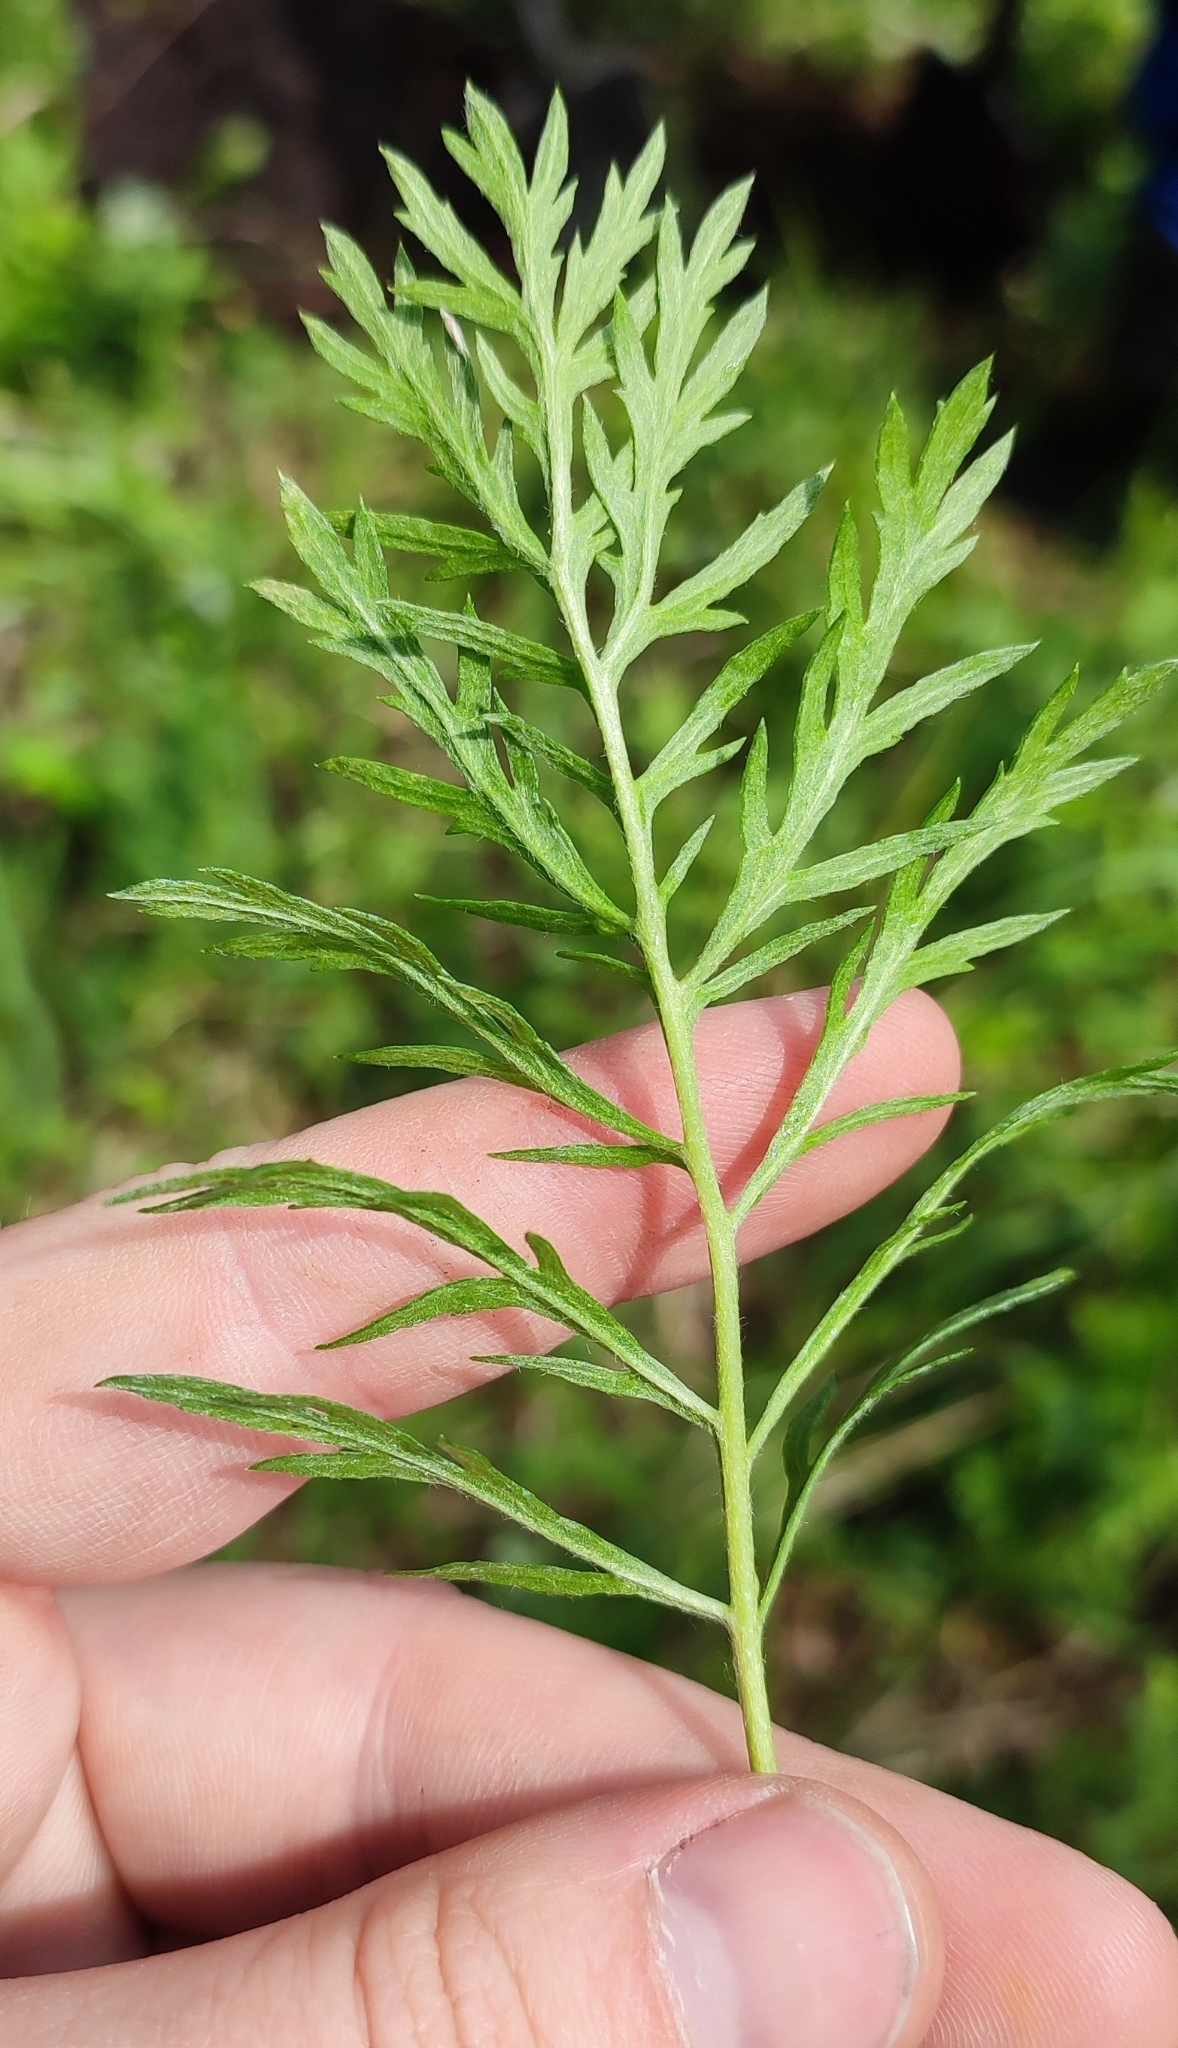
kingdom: Plantae
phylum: Tracheophyta
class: Magnoliopsida
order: Asterales
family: Asteraceae
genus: Artemisia
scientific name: Artemisia latifolia
